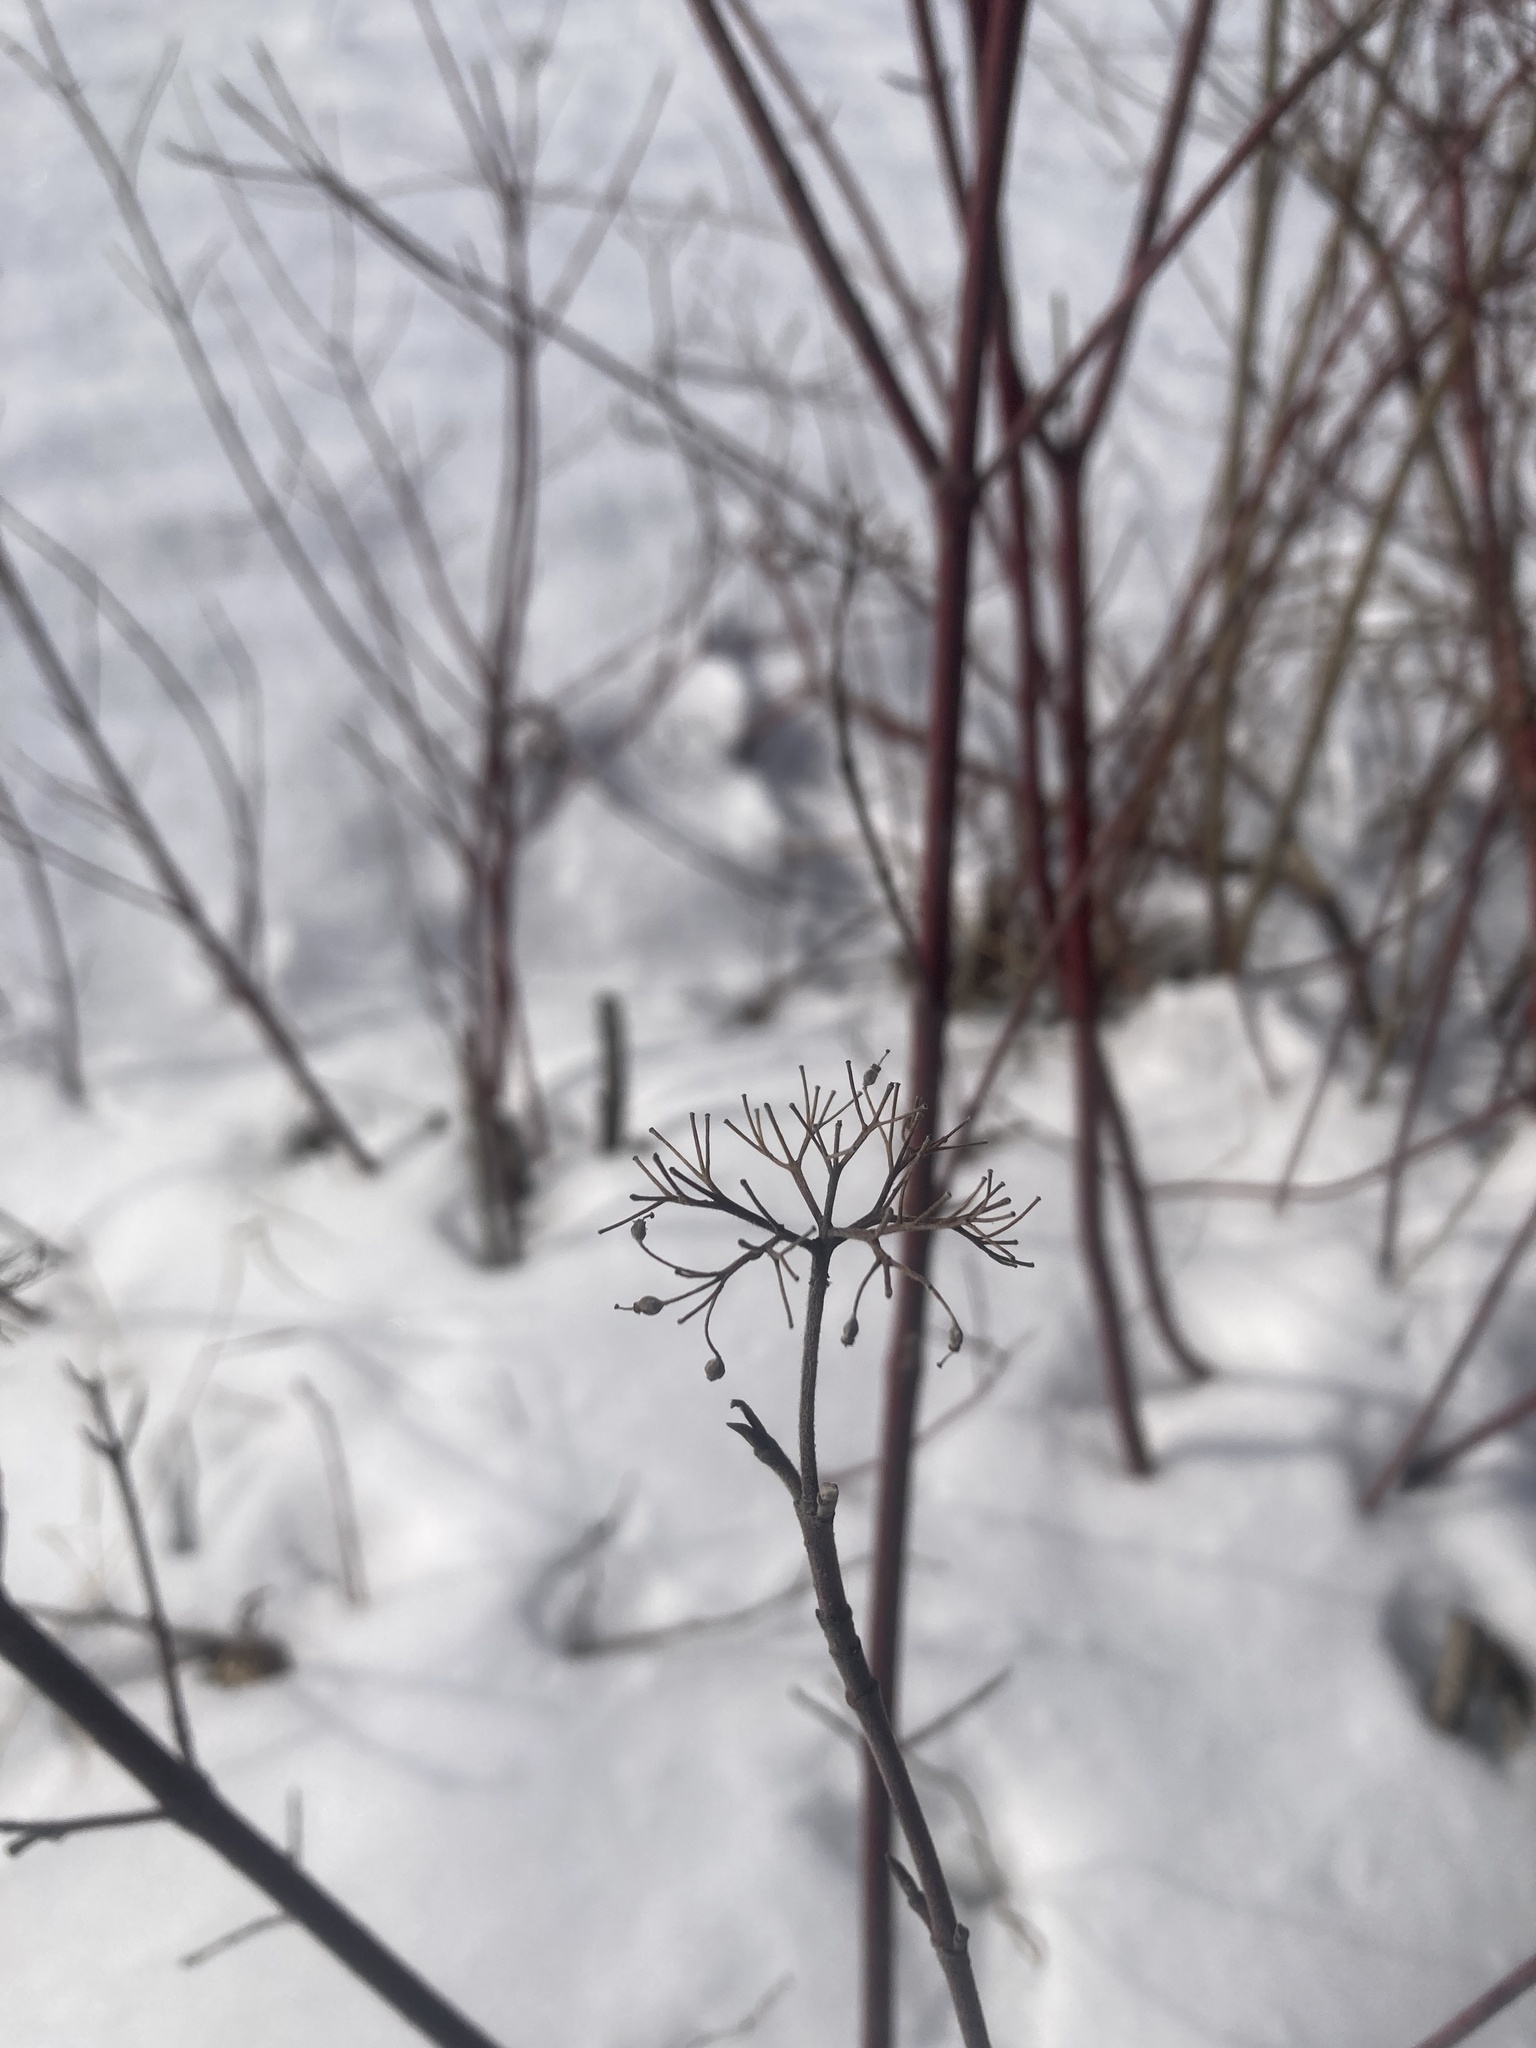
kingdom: Plantae
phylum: Tracheophyta
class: Magnoliopsida
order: Cornales
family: Cornaceae
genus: Cornus
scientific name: Cornus sericea
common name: Red-osier dogwood
